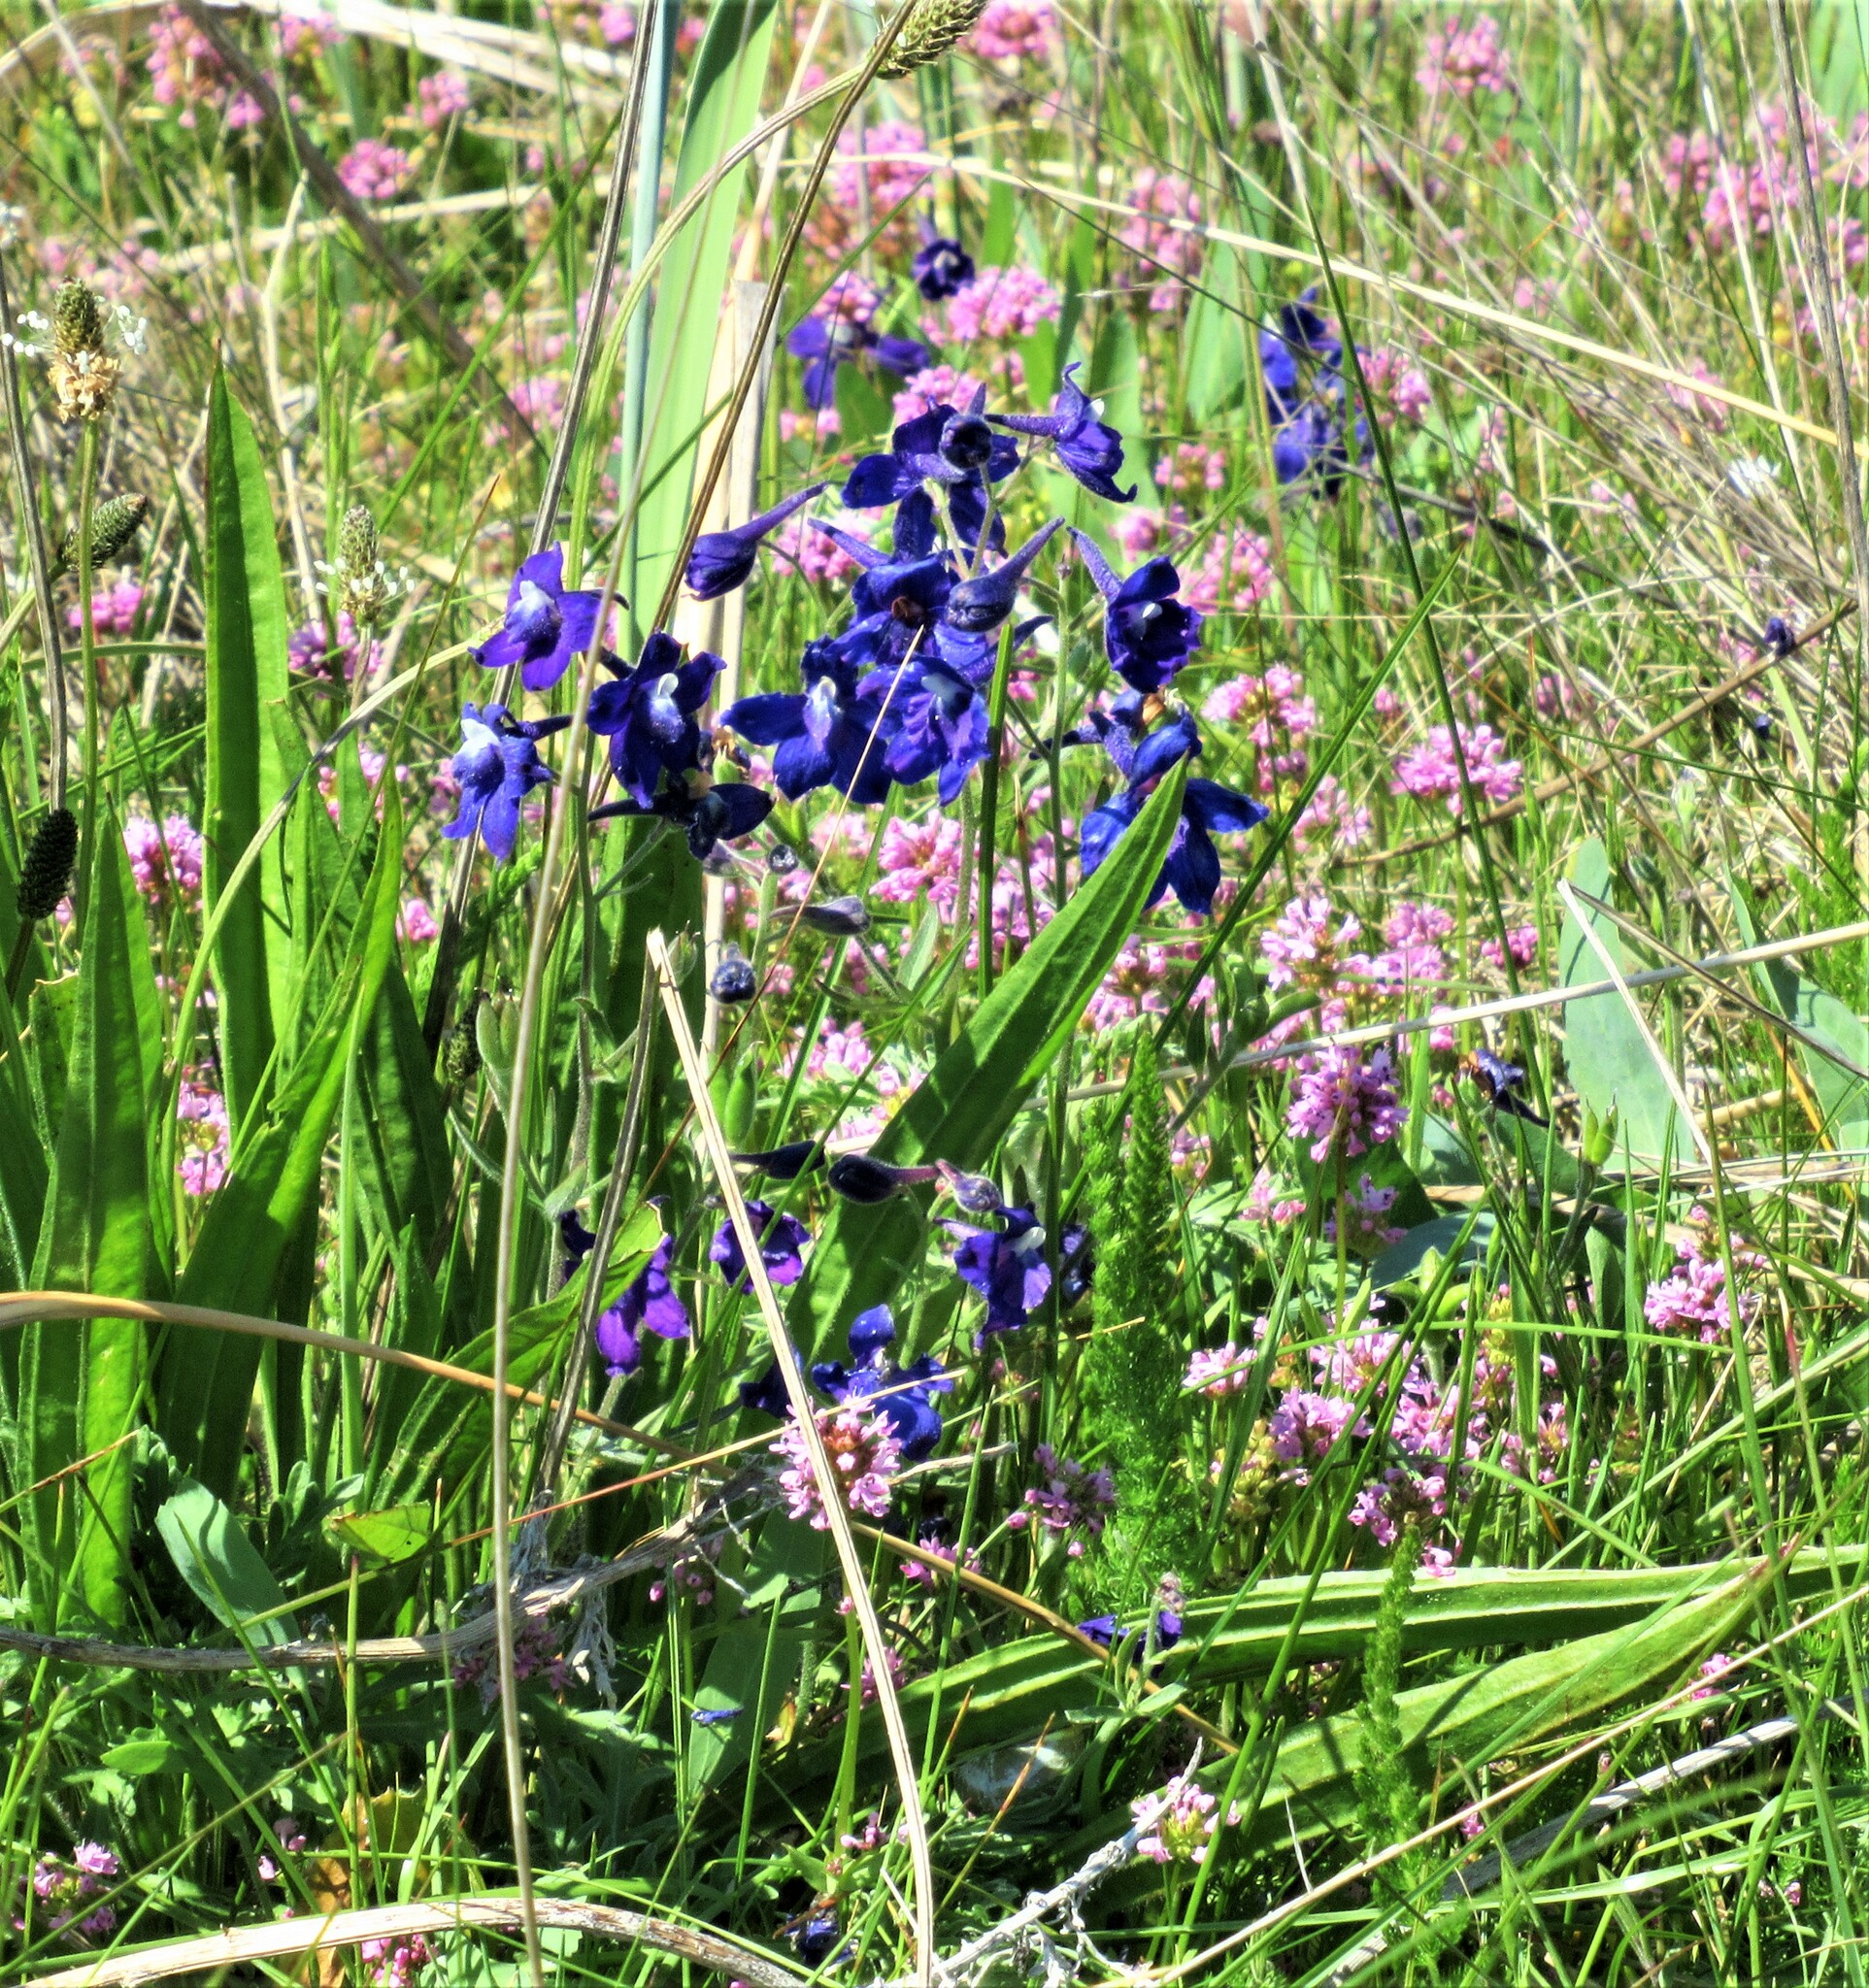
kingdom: Plantae
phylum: Tracheophyta
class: Magnoliopsida
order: Ranunculales
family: Ranunculaceae
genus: Delphinium
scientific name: Delphinium menziesii
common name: Menzies's larkspur
